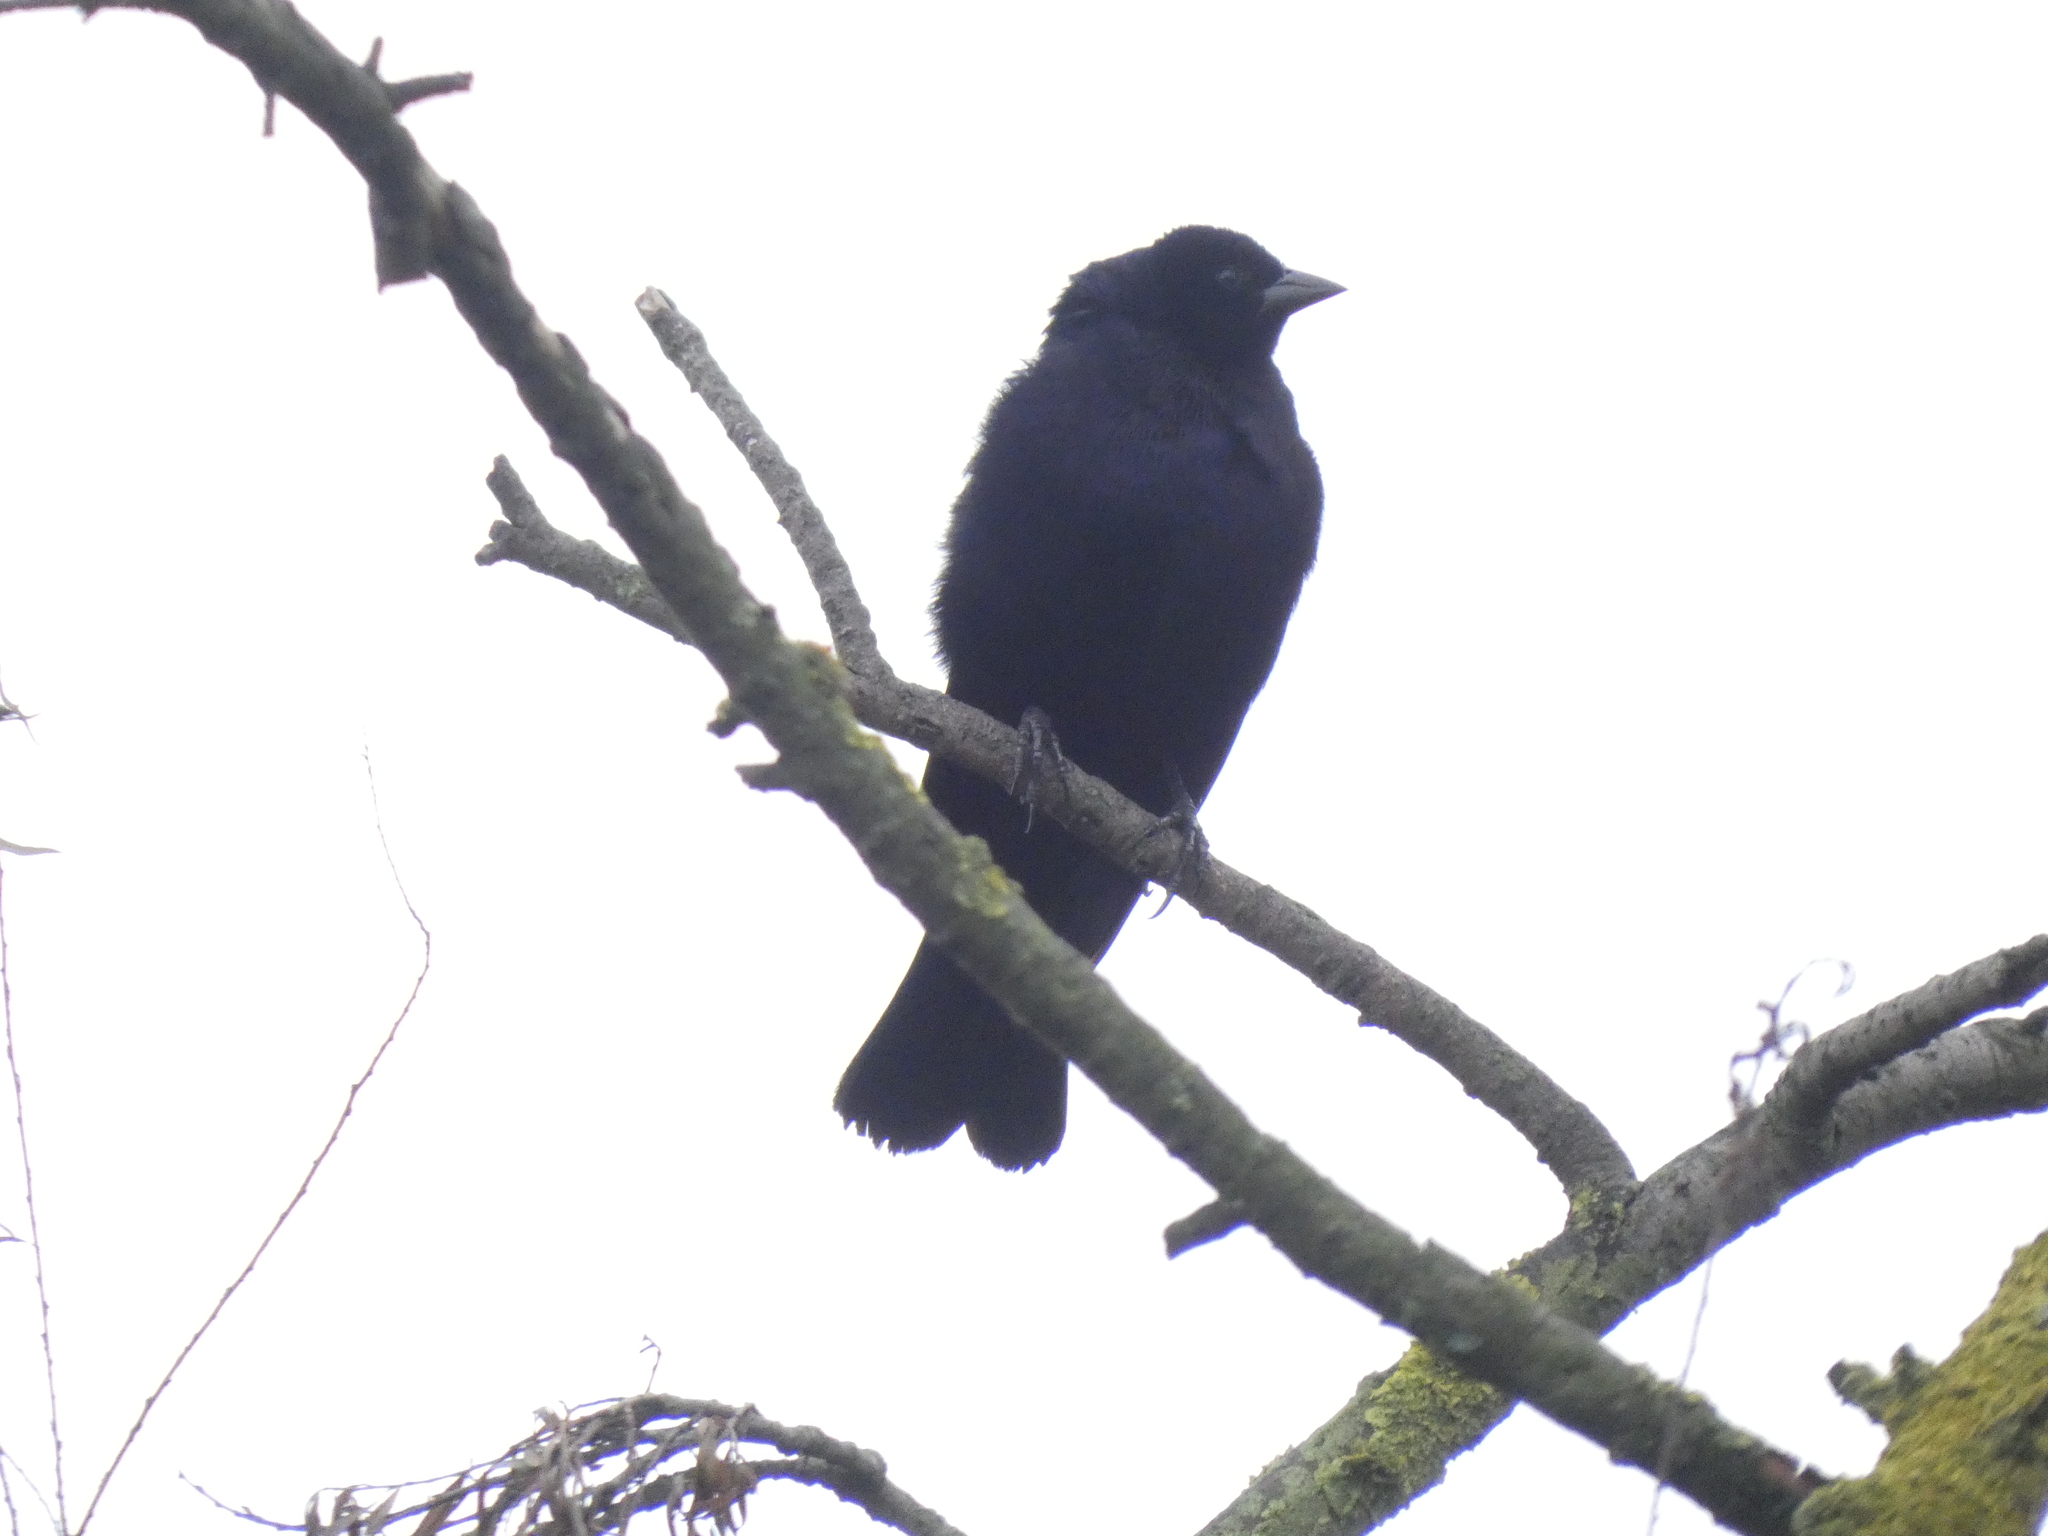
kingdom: Animalia
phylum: Chordata
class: Aves
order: Passeriformes
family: Icteridae
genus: Molothrus
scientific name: Molothrus bonariensis
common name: Shiny cowbird
